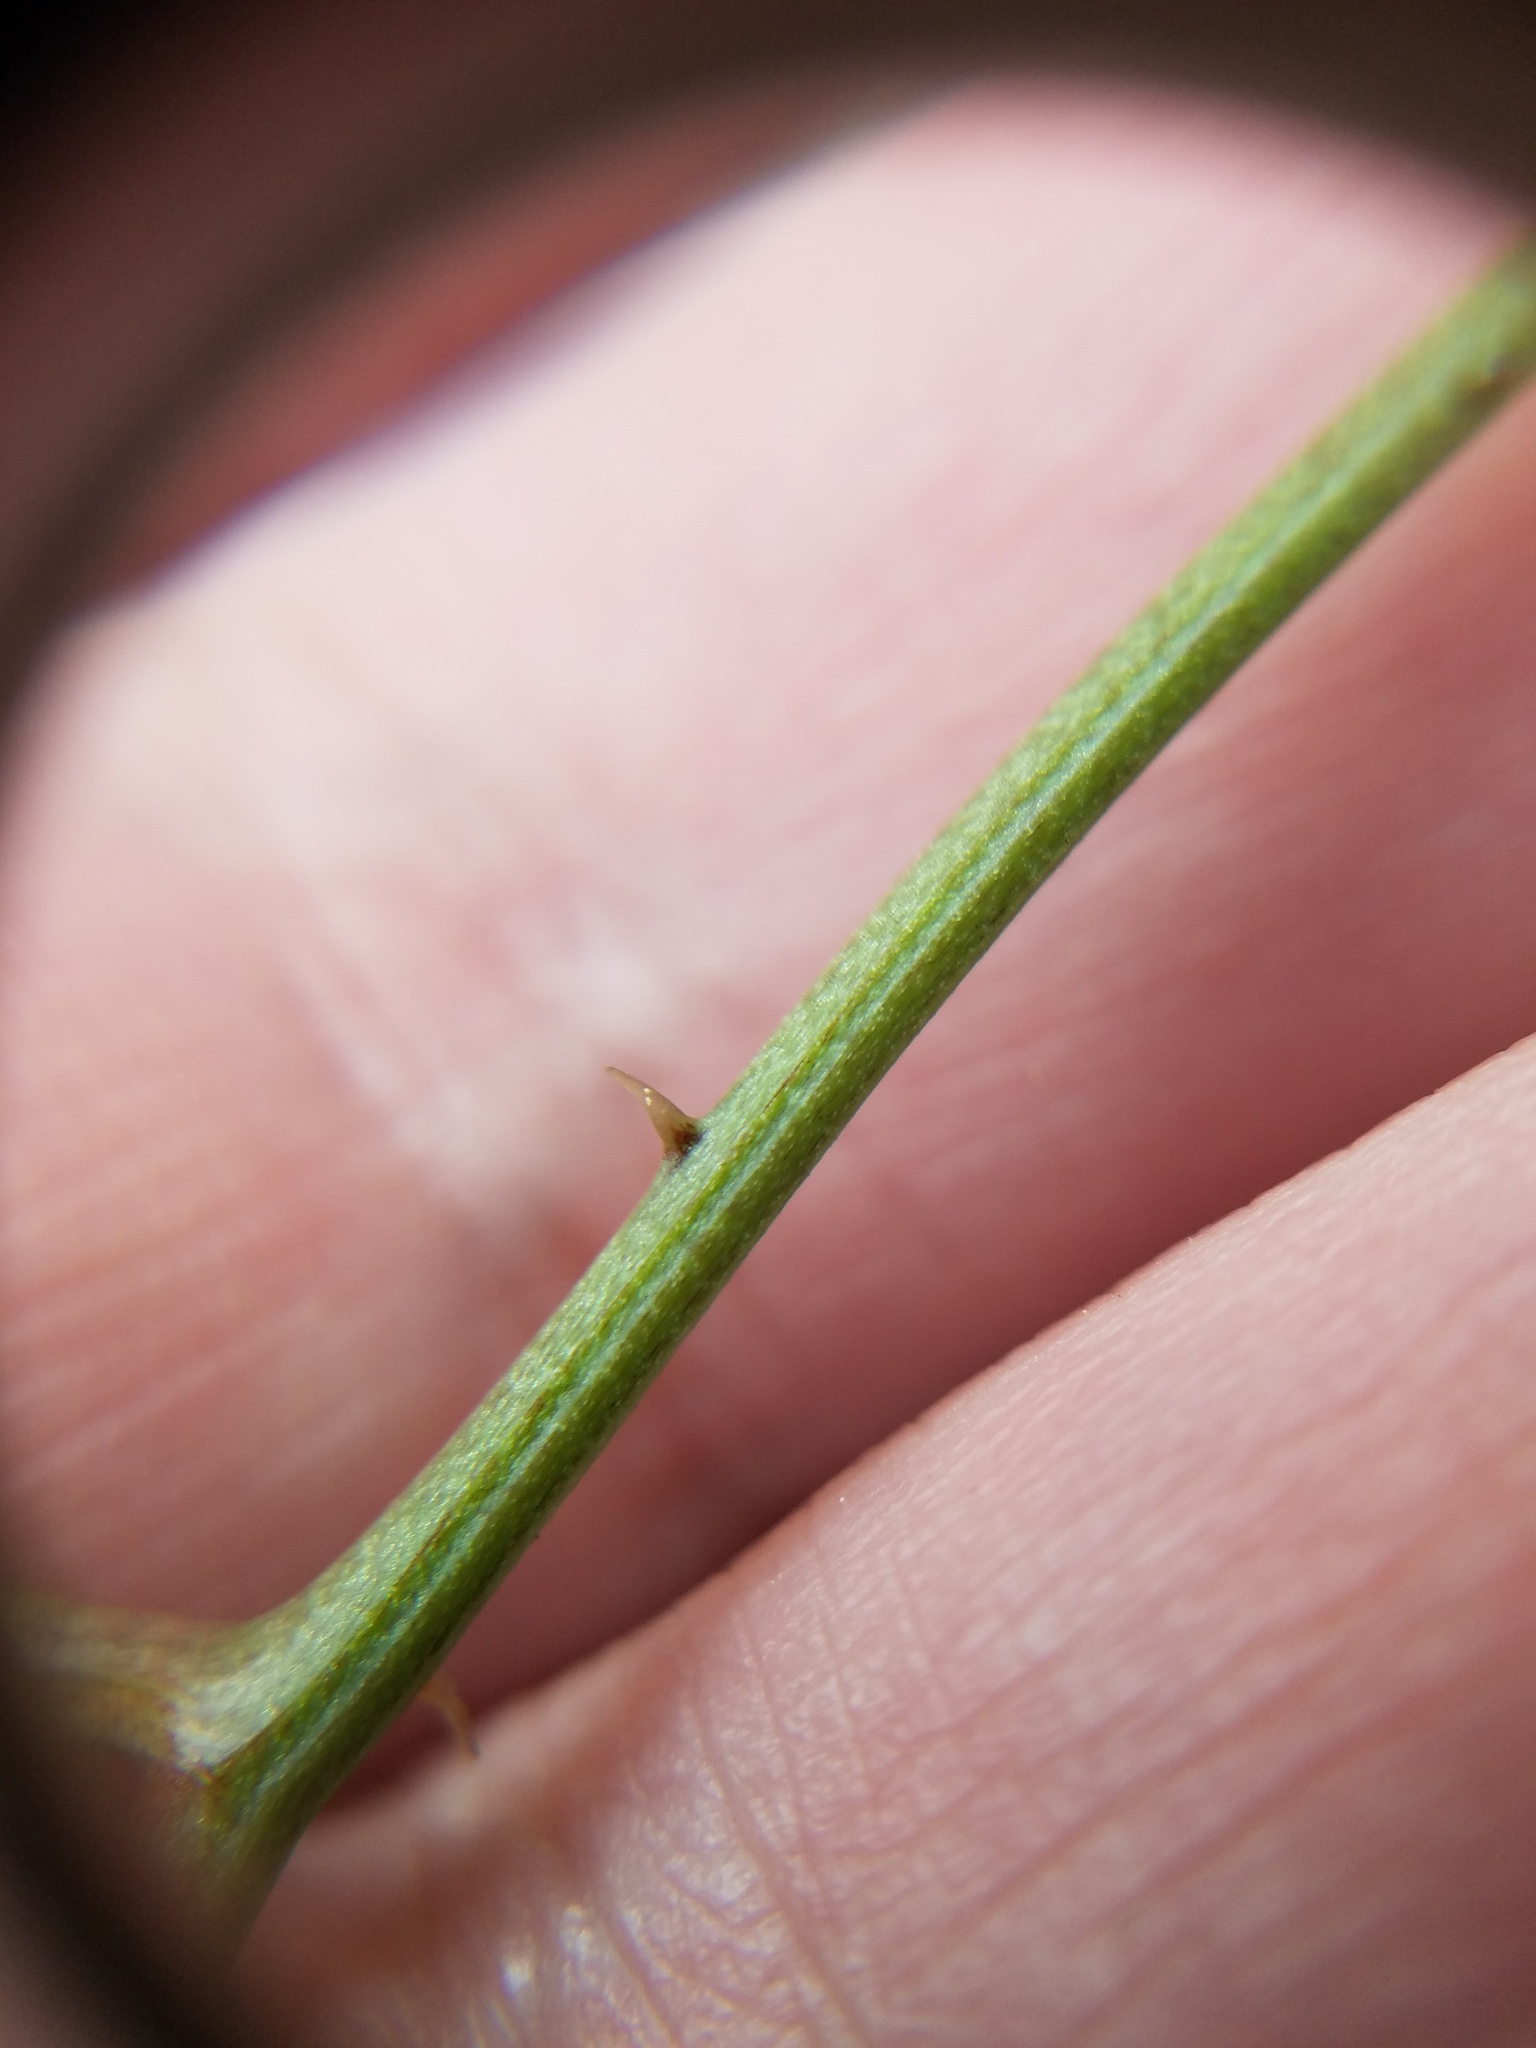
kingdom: Plantae
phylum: Tracheophyta
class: Liliopsida
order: Liliales
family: Smilacaceae
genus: Smilax
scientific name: Smilax auriculata
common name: Wild bamboo
